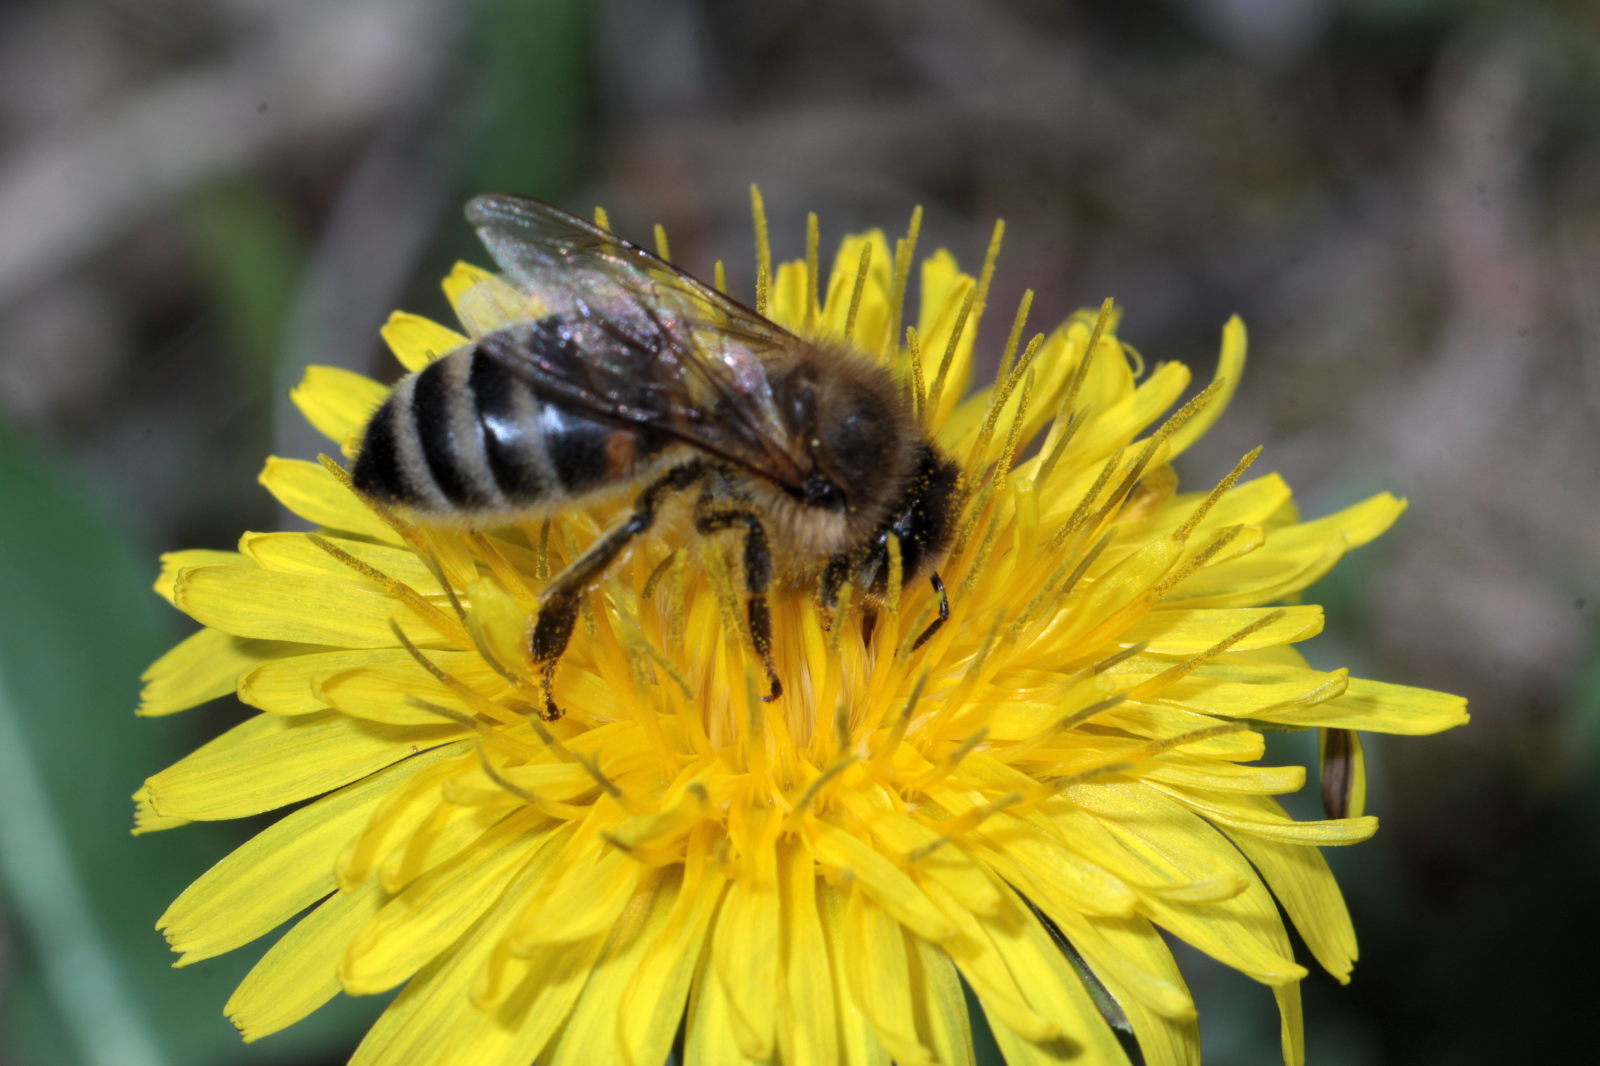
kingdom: Animalia
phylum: Arthropoda
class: Insecta
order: Hymenoptera
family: Apidae
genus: Apis
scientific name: Apis mellifera
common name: Honey bee
